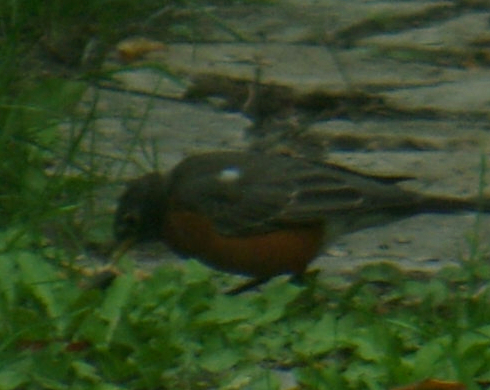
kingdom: Animalia
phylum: Chordata
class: Aves
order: Passeriformes
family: Turdidae
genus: Turdus
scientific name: Turdus migratorius
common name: American robin
